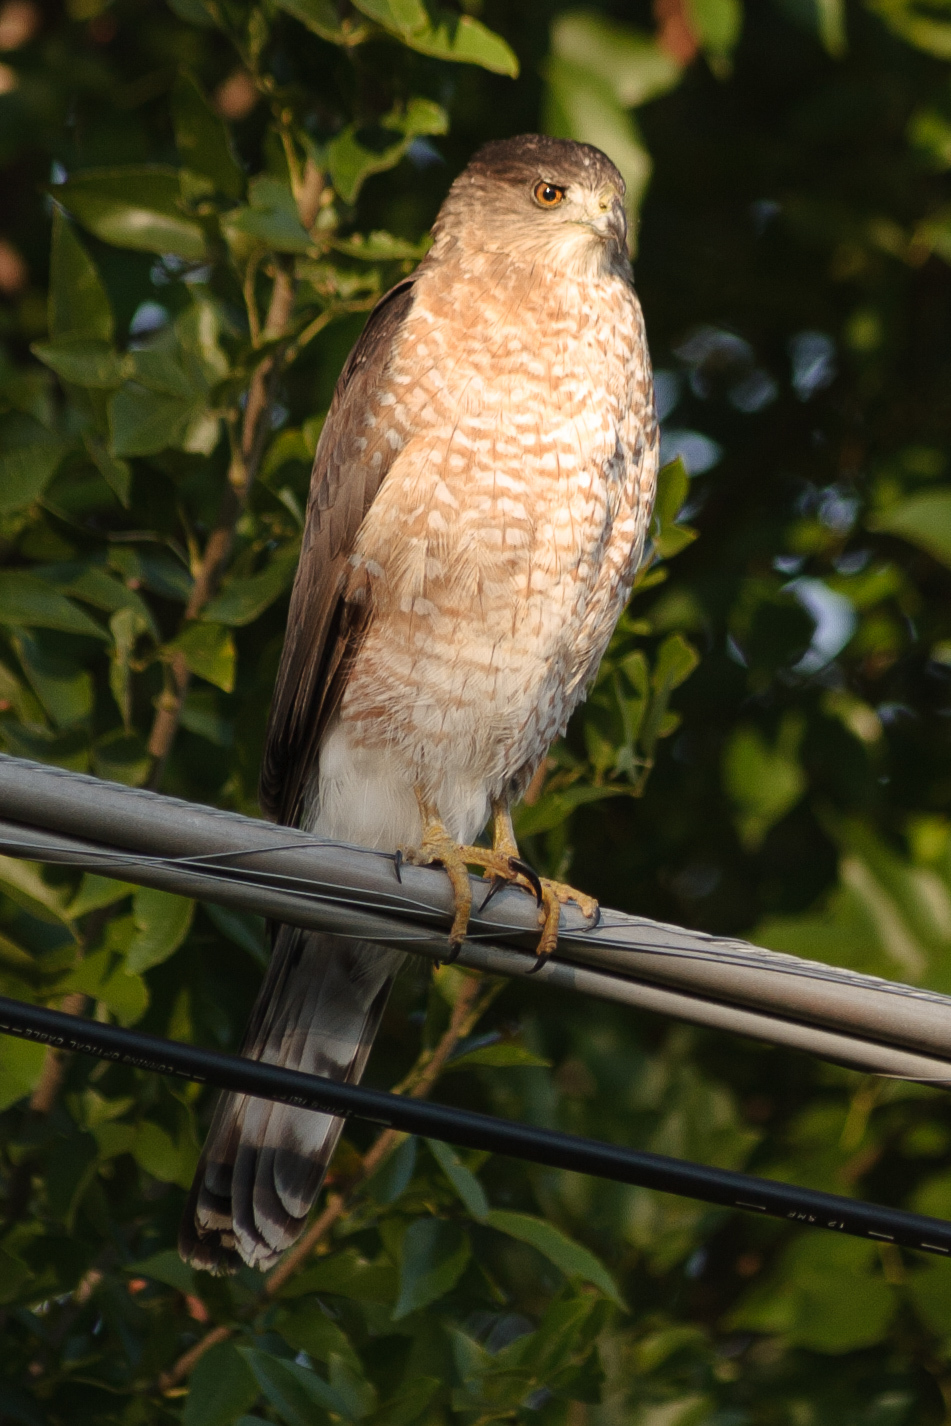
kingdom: Animalia
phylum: Chordata
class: Aves
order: Accipitriformes
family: Accipitridae
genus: Accipiter
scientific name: Accipiter cooperii
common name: Cooper's hawk
